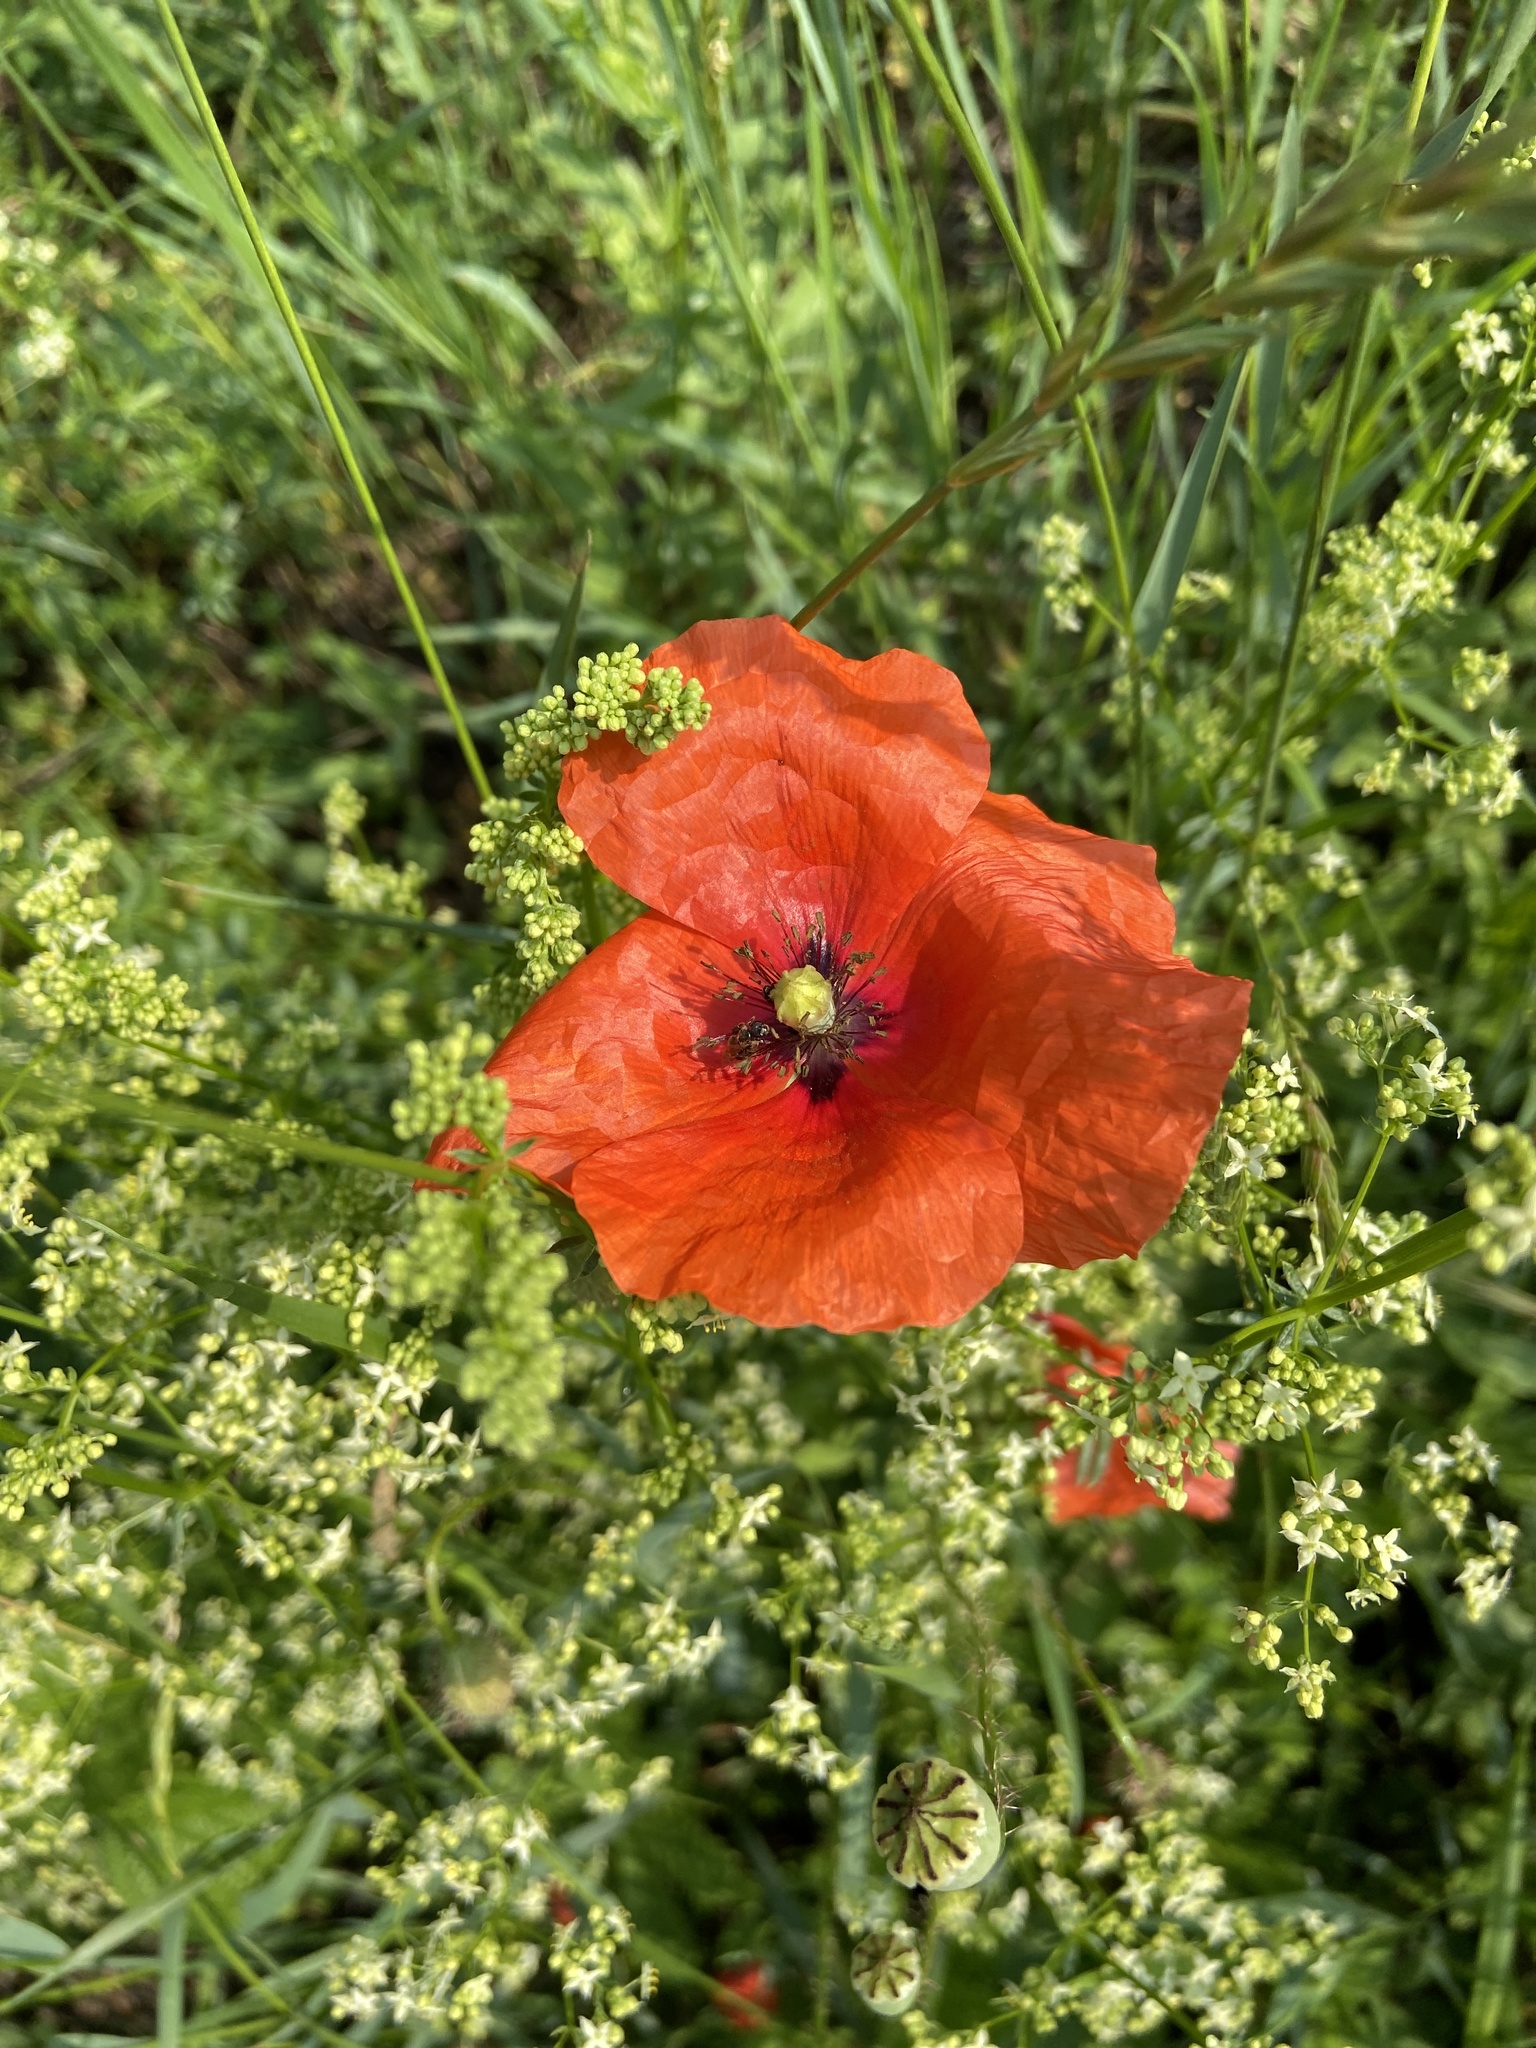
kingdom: Plantae
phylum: Tracheophyta
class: Magnoliopsida
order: Ranunculales
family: Papaveraceae
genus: Papaver
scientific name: Papaver rhoeas
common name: Corn poppy
